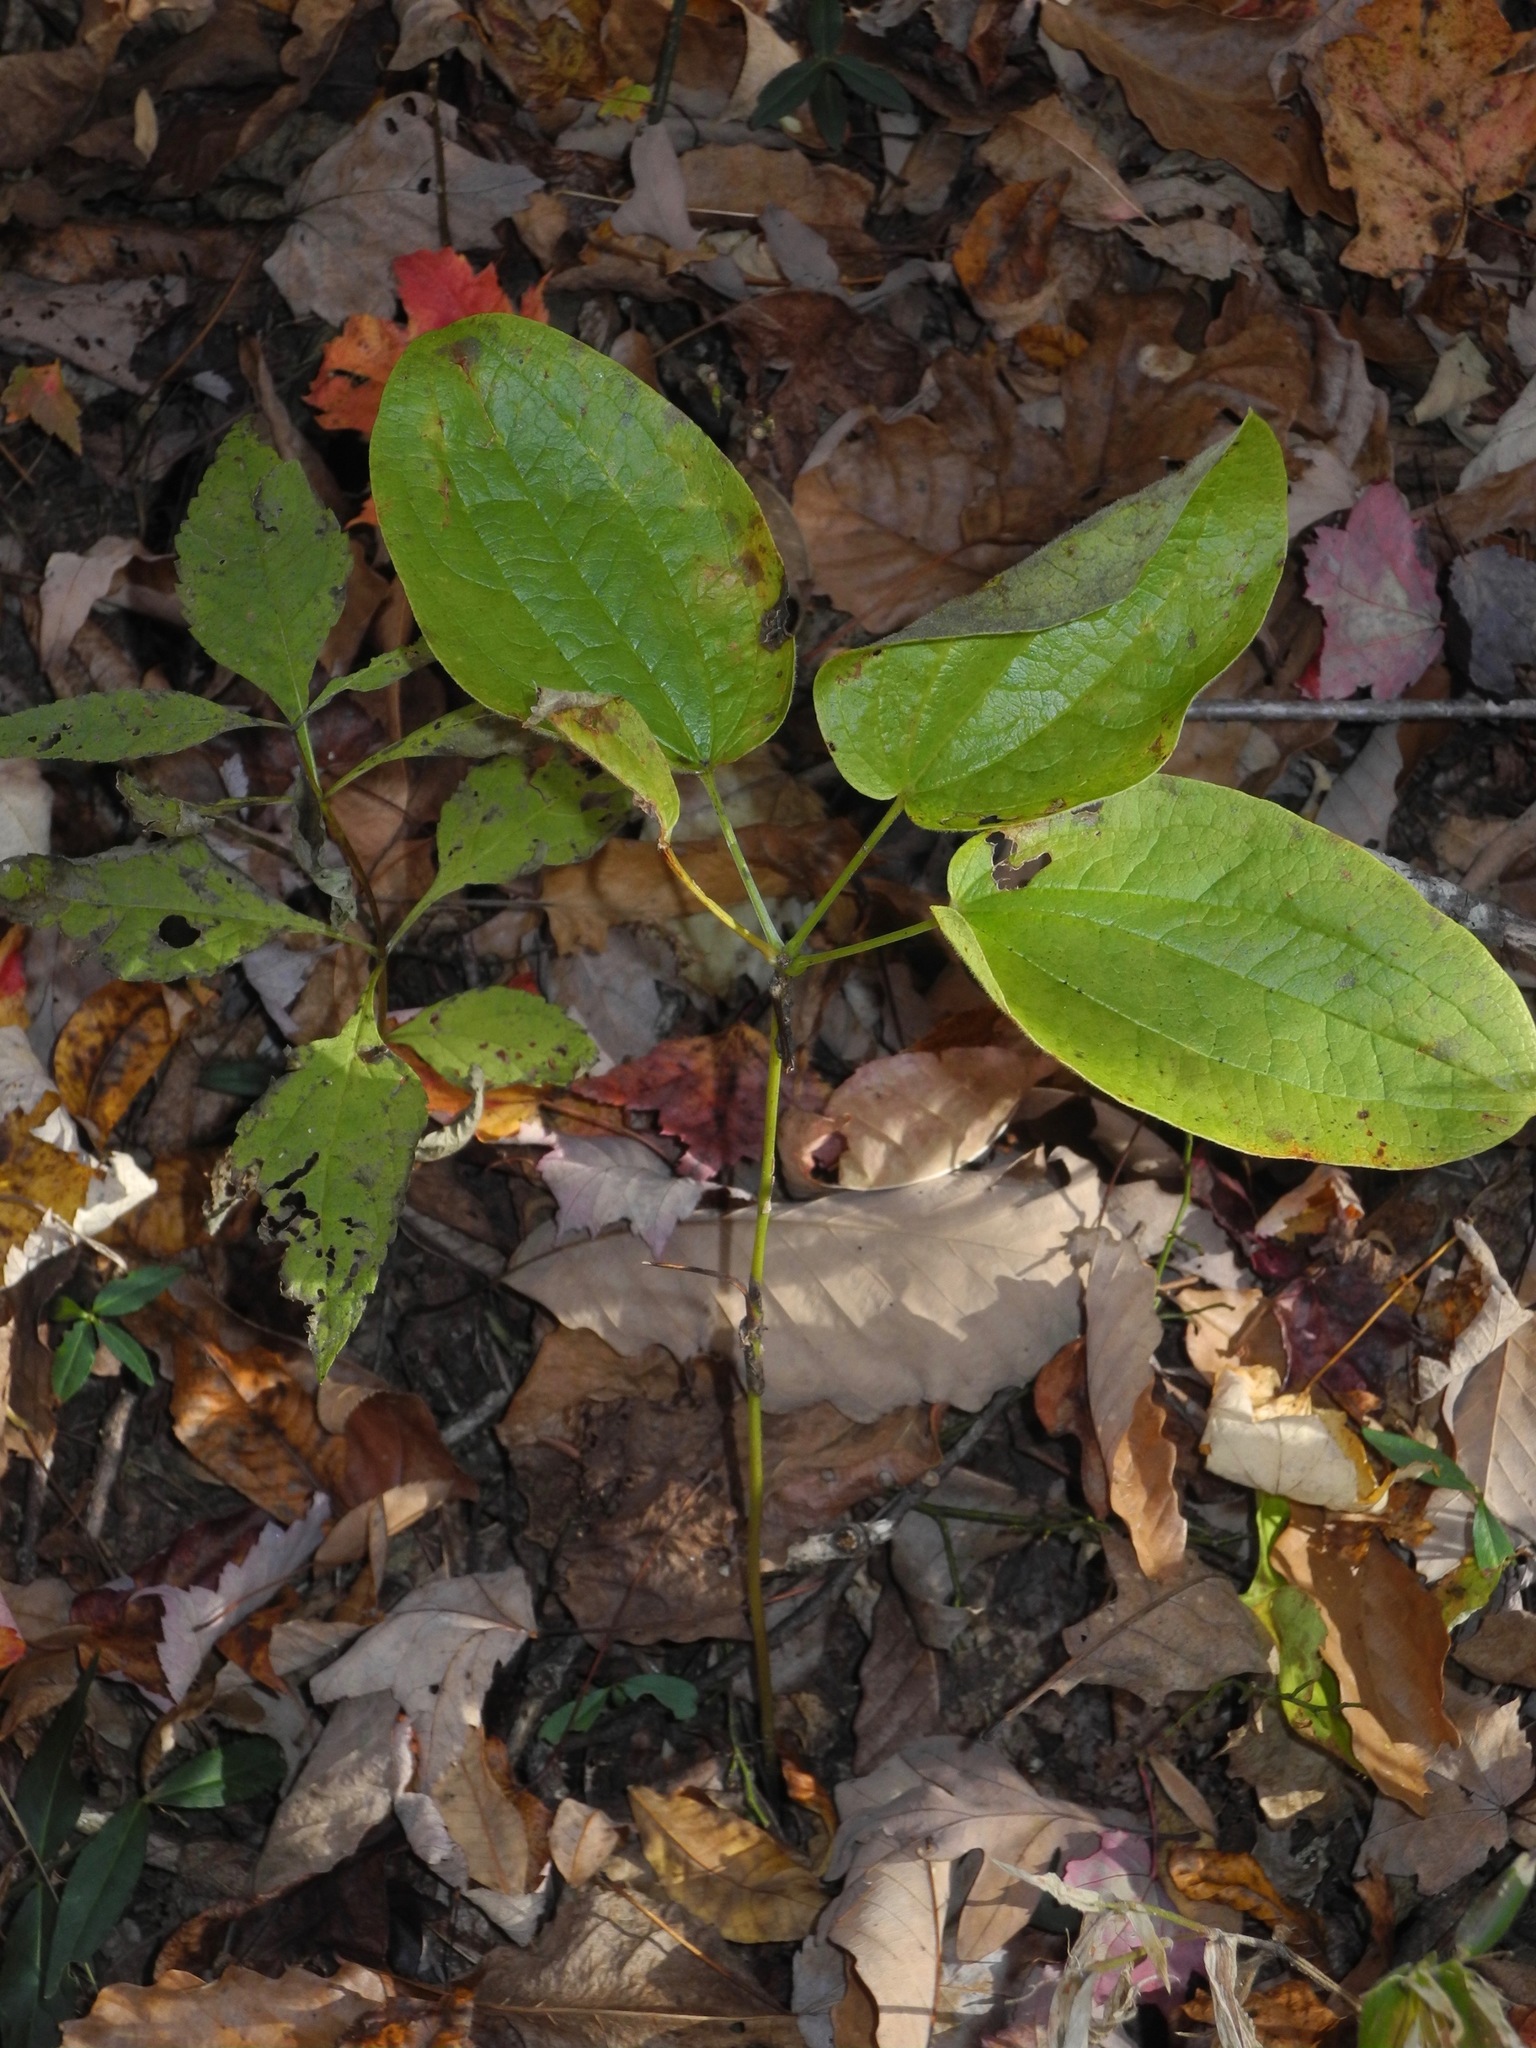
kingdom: Plantae
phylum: Tracheophyta
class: Liliopsida
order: Liliales
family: Smilacaceae
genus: Smilax
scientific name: Smilax hugeri
